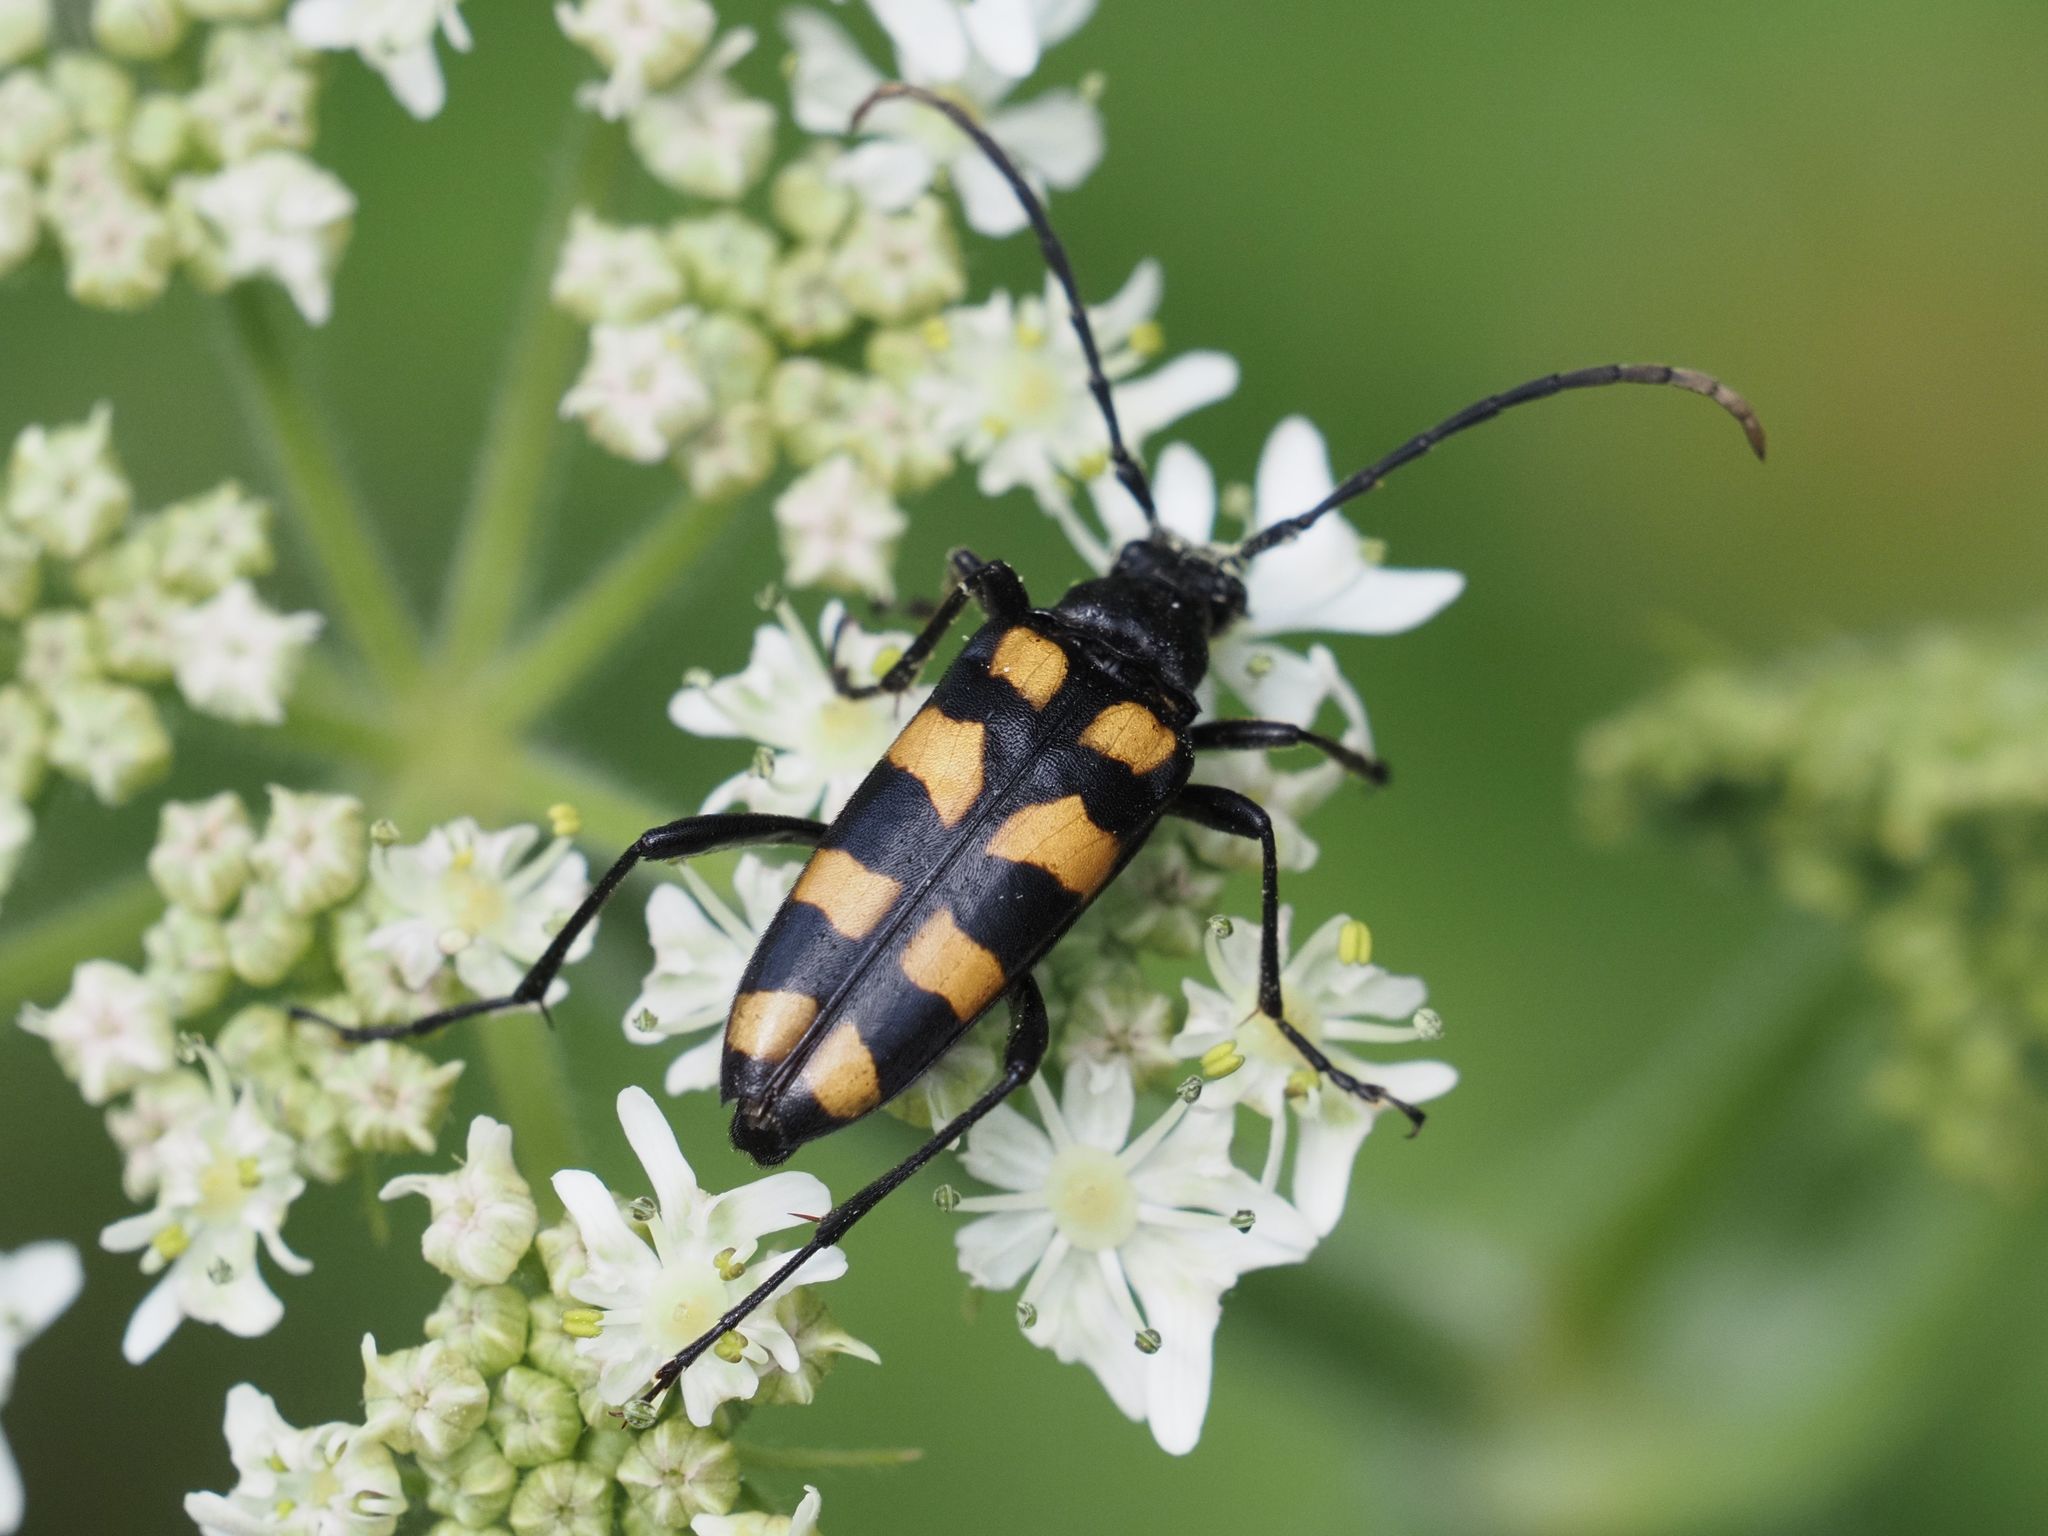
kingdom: Animalia
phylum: Arthropoda
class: Insecta
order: Coleoptera
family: Cerambycidae
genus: Leptura
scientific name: Leptura quadrifasciata
